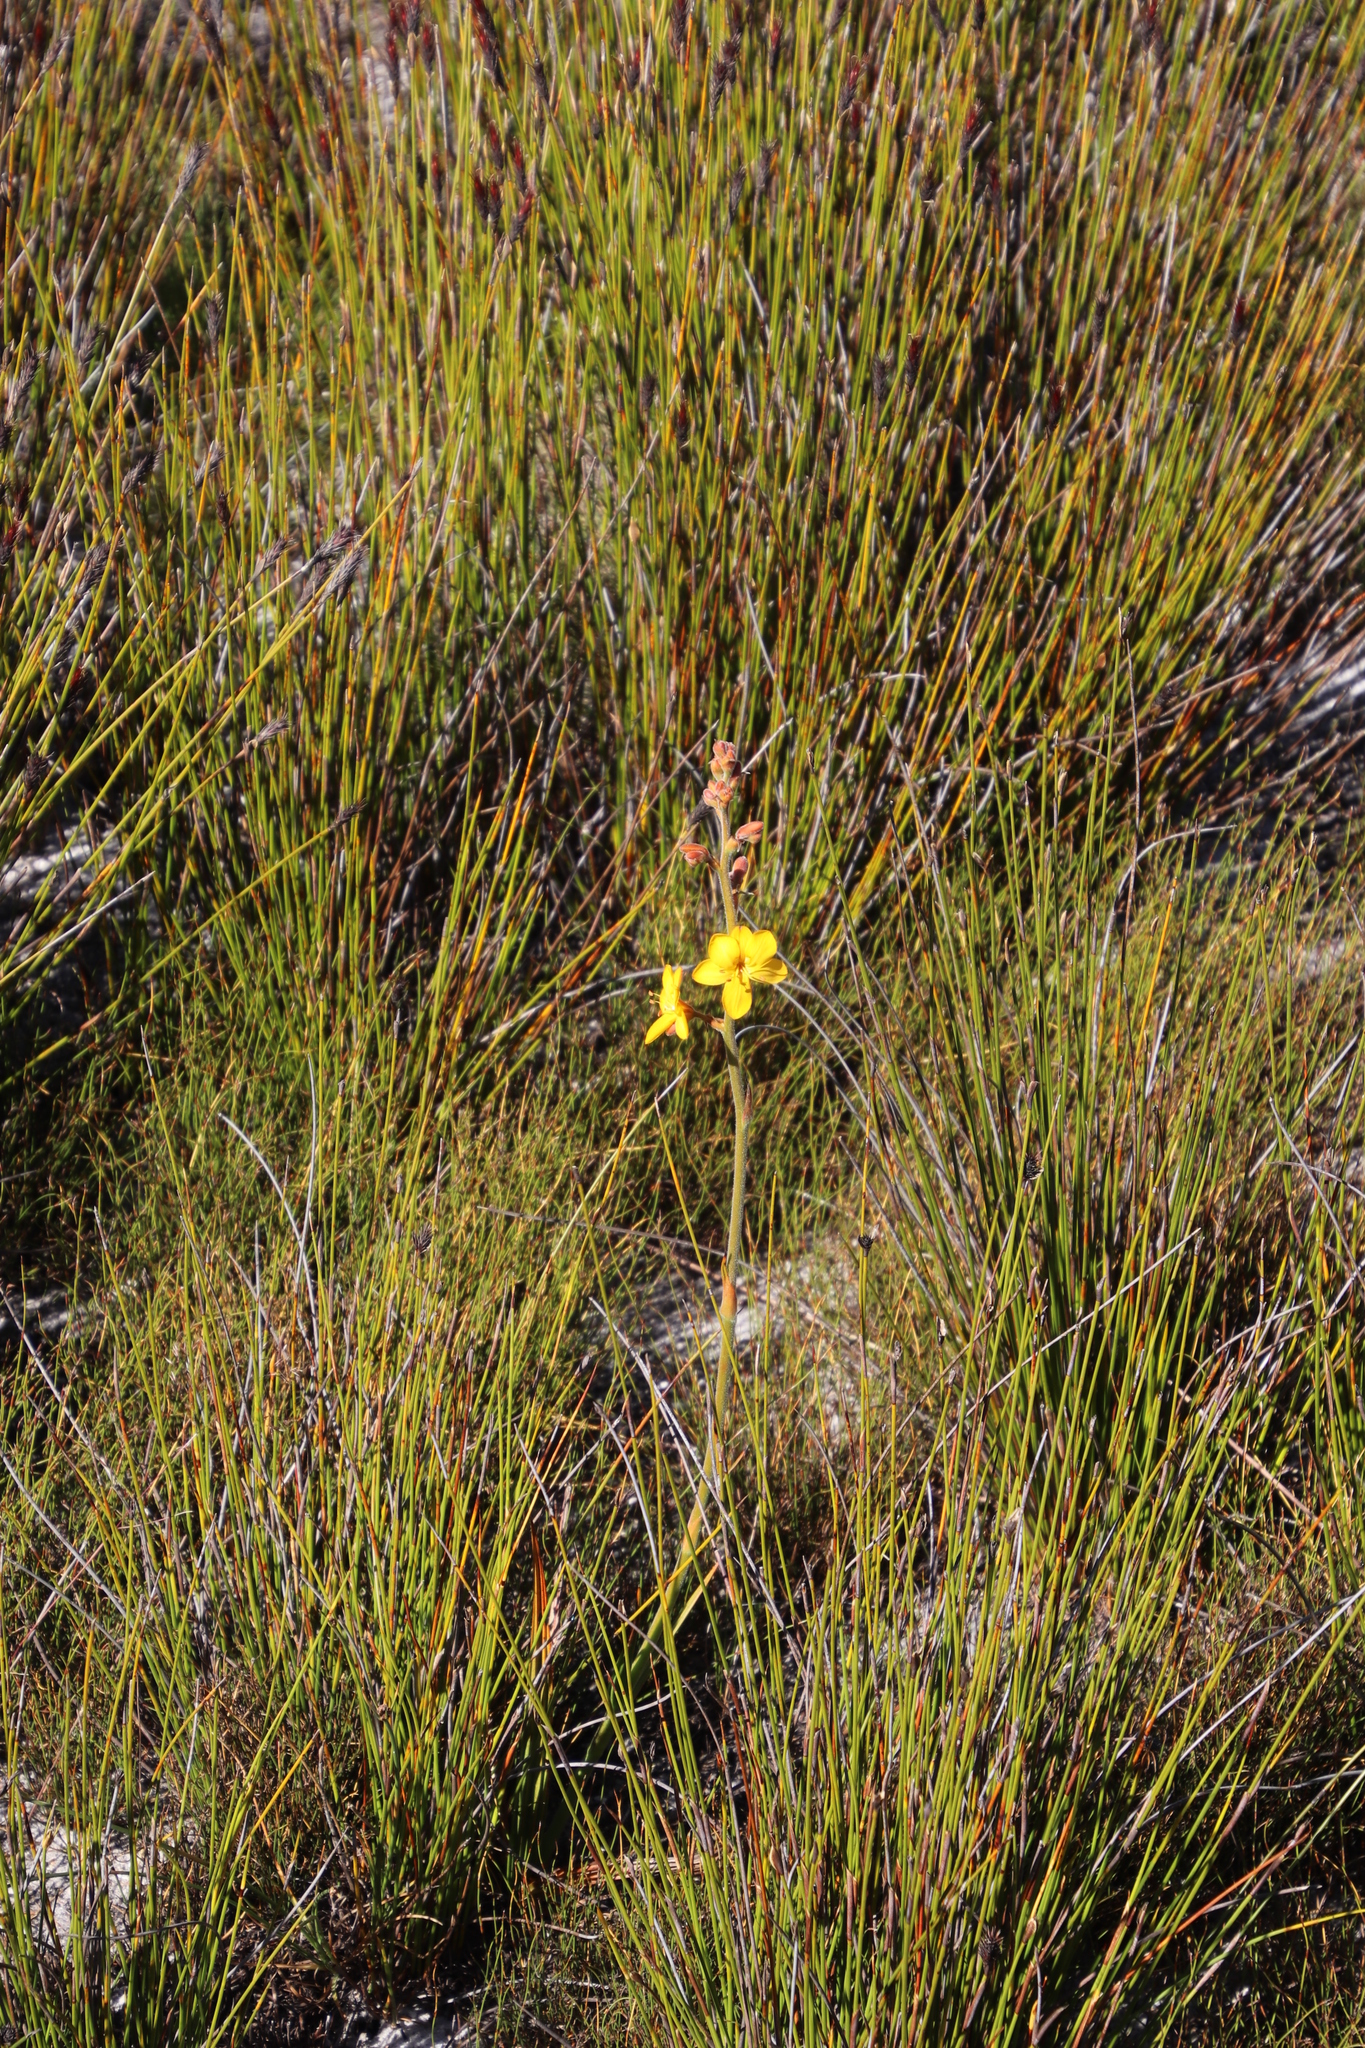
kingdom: Plantae
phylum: Tracheophyta
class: Liliopsida
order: Commelinales
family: Haemodoraceae
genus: Wachendorfia
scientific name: Wachendorfia paniculata
